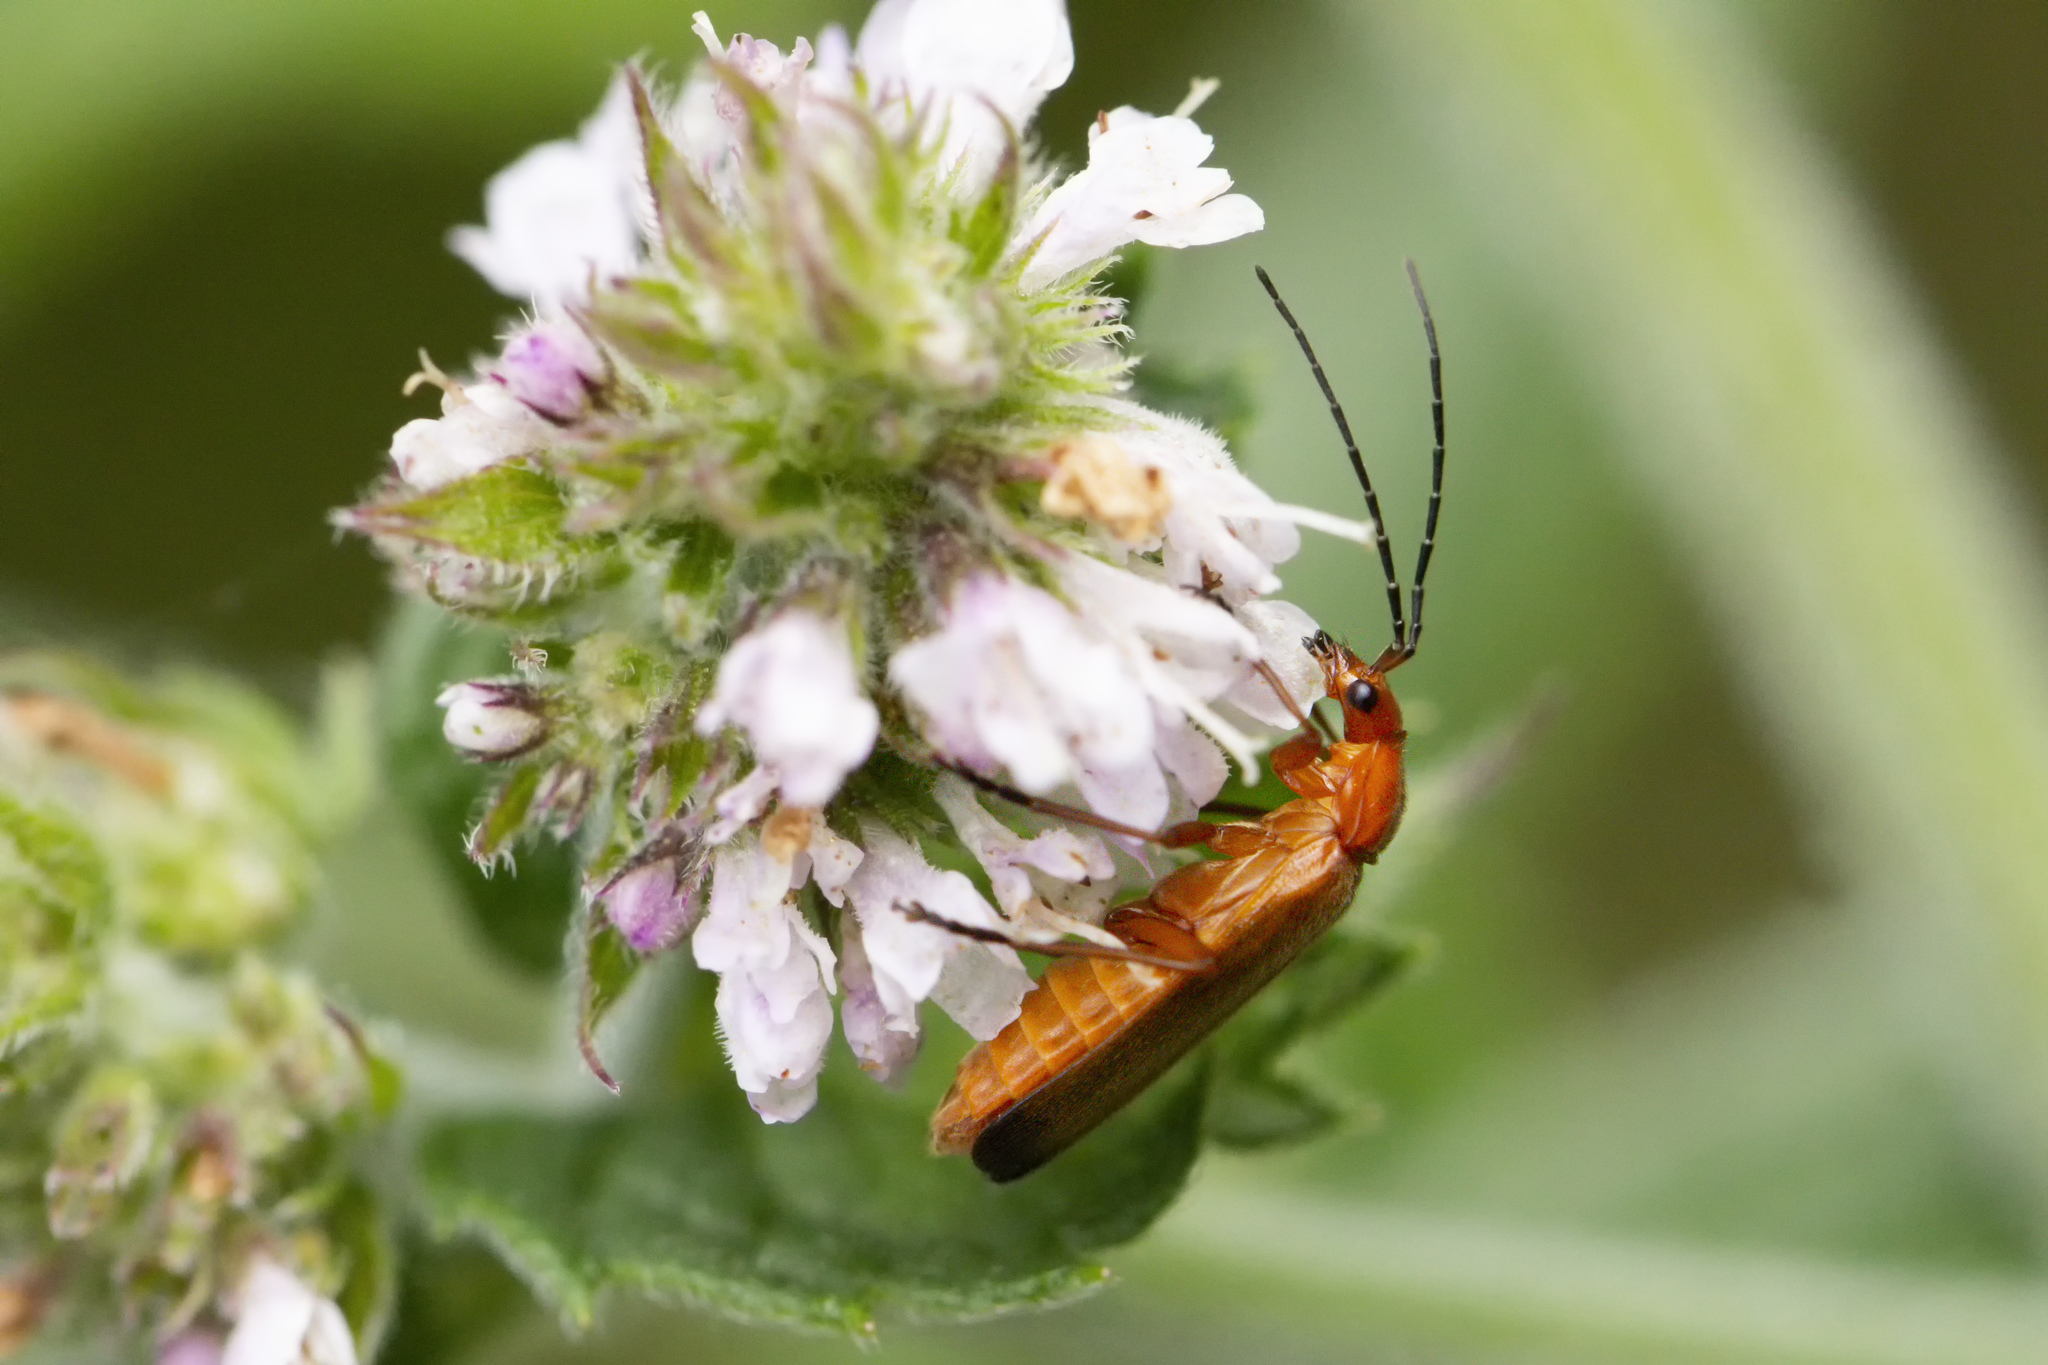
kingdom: Animalia
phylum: Arthropoda
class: Insecta
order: Coleoptera
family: Cantharidae
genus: Rhagonycha
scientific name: Rhagonycha fulva
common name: Common red soldier beetle
